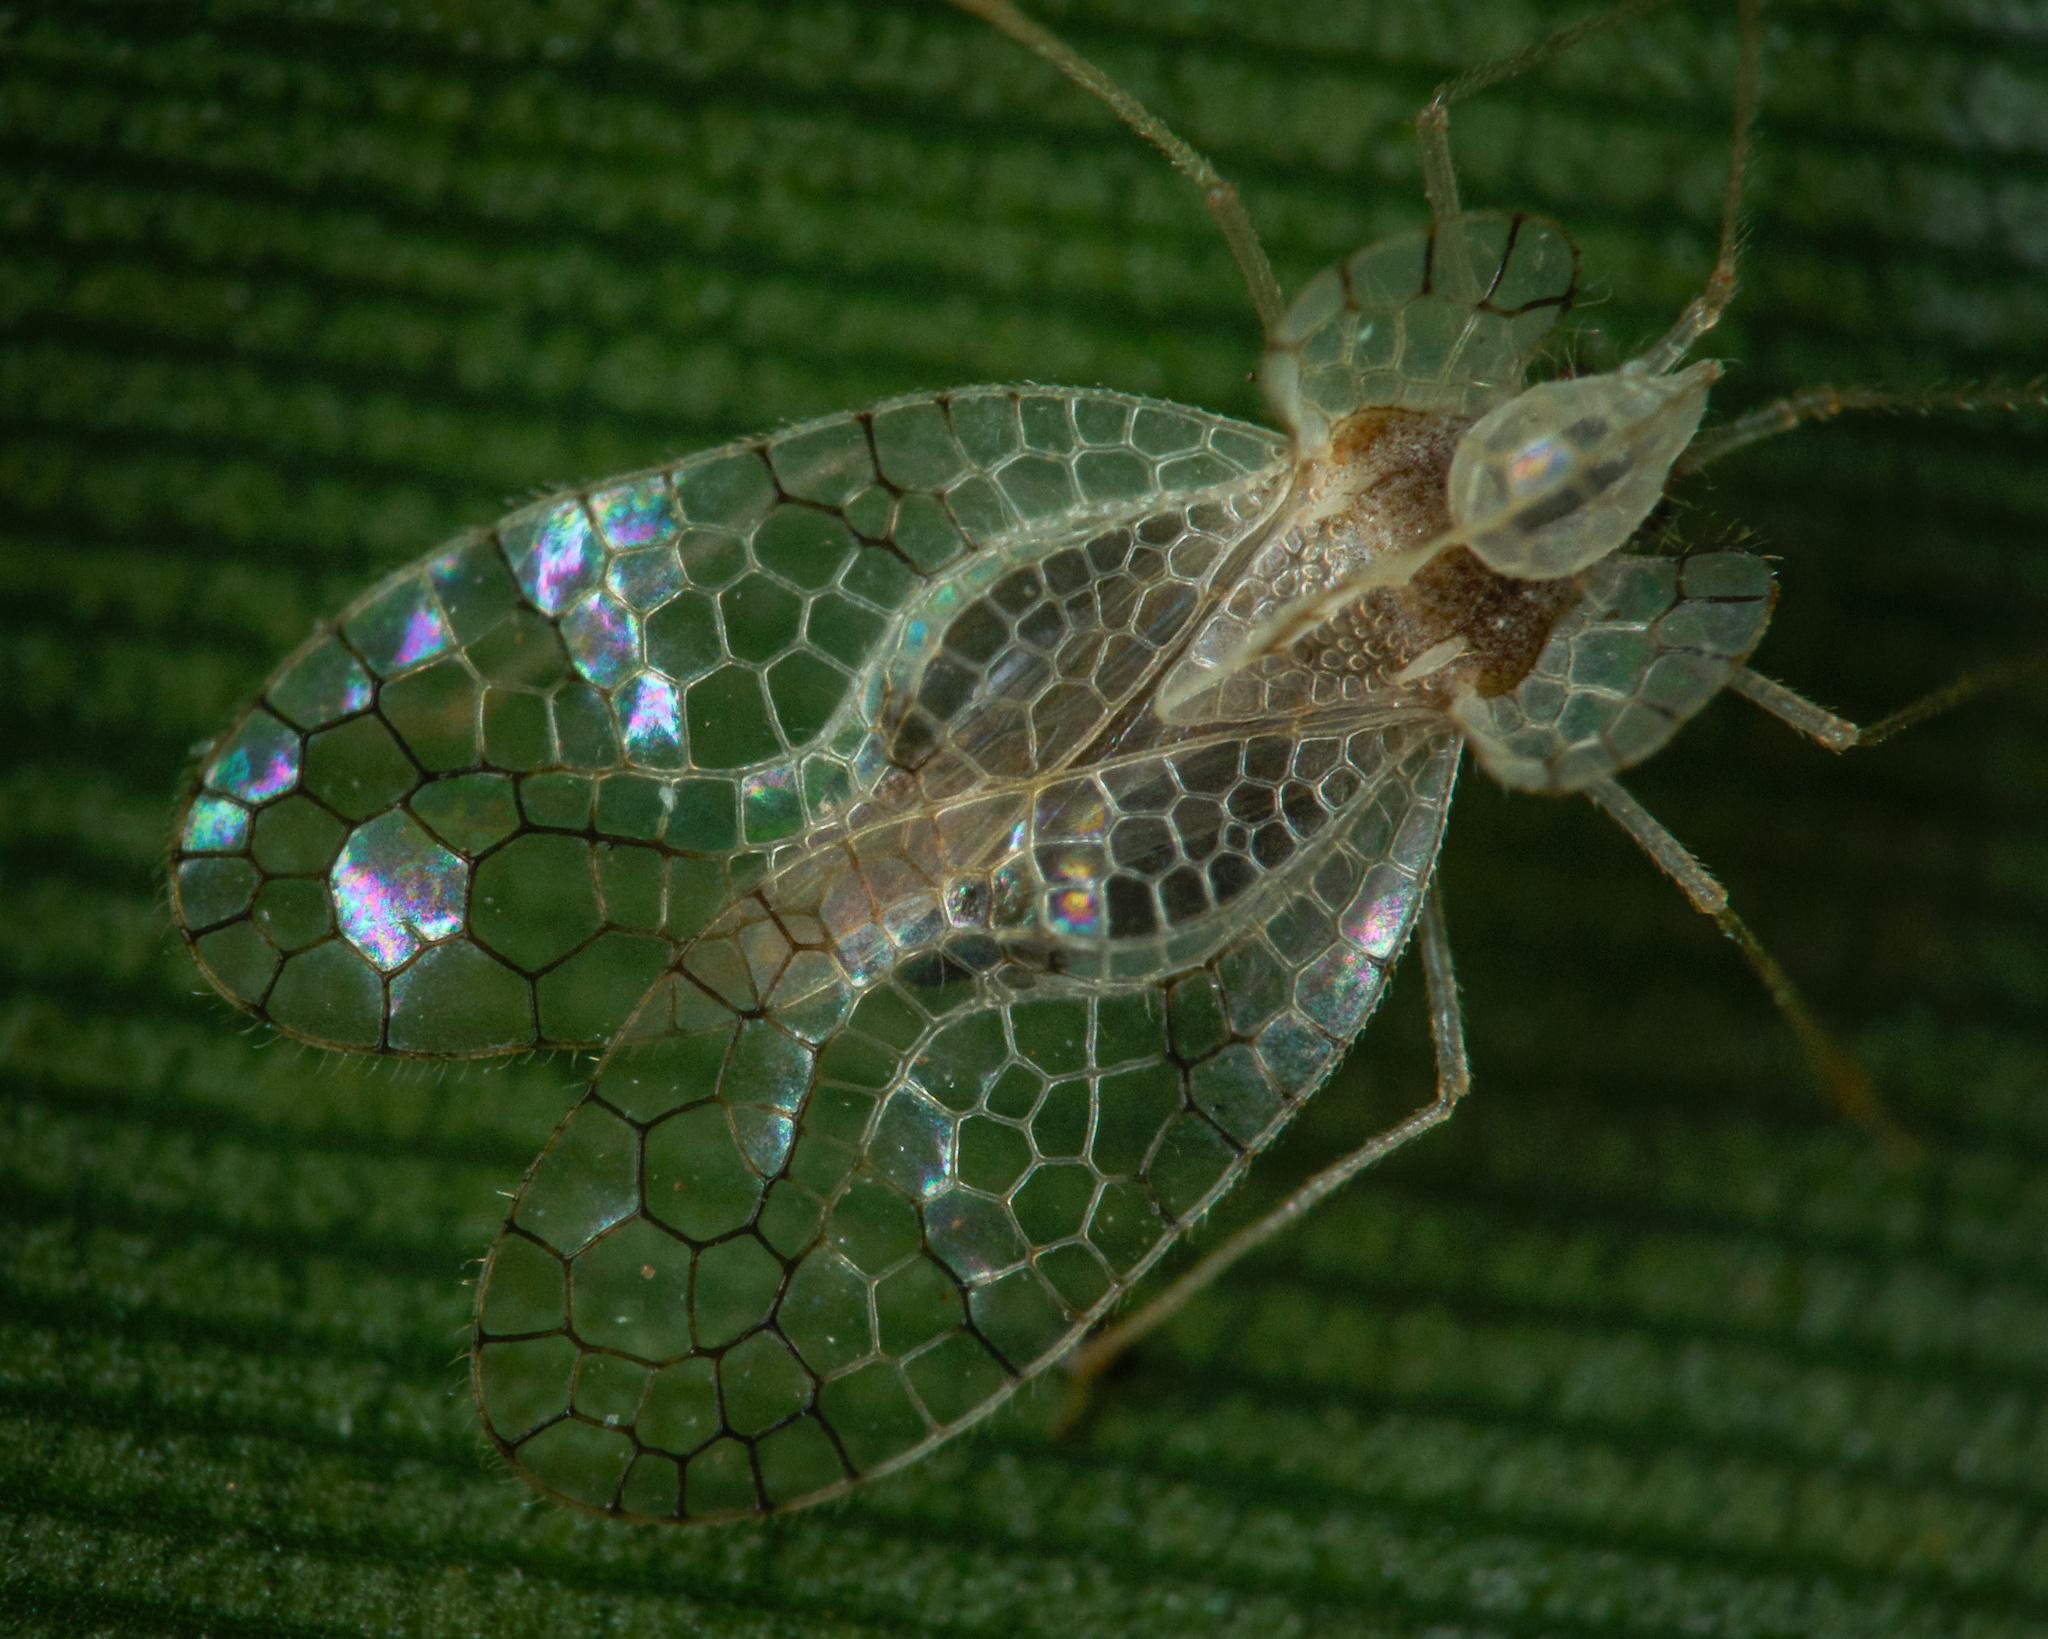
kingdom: Animalia
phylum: Arthropoda
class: Insecta
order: Hemiptera
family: Tingidae
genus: Stephanitis
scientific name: Stephanitis typica
